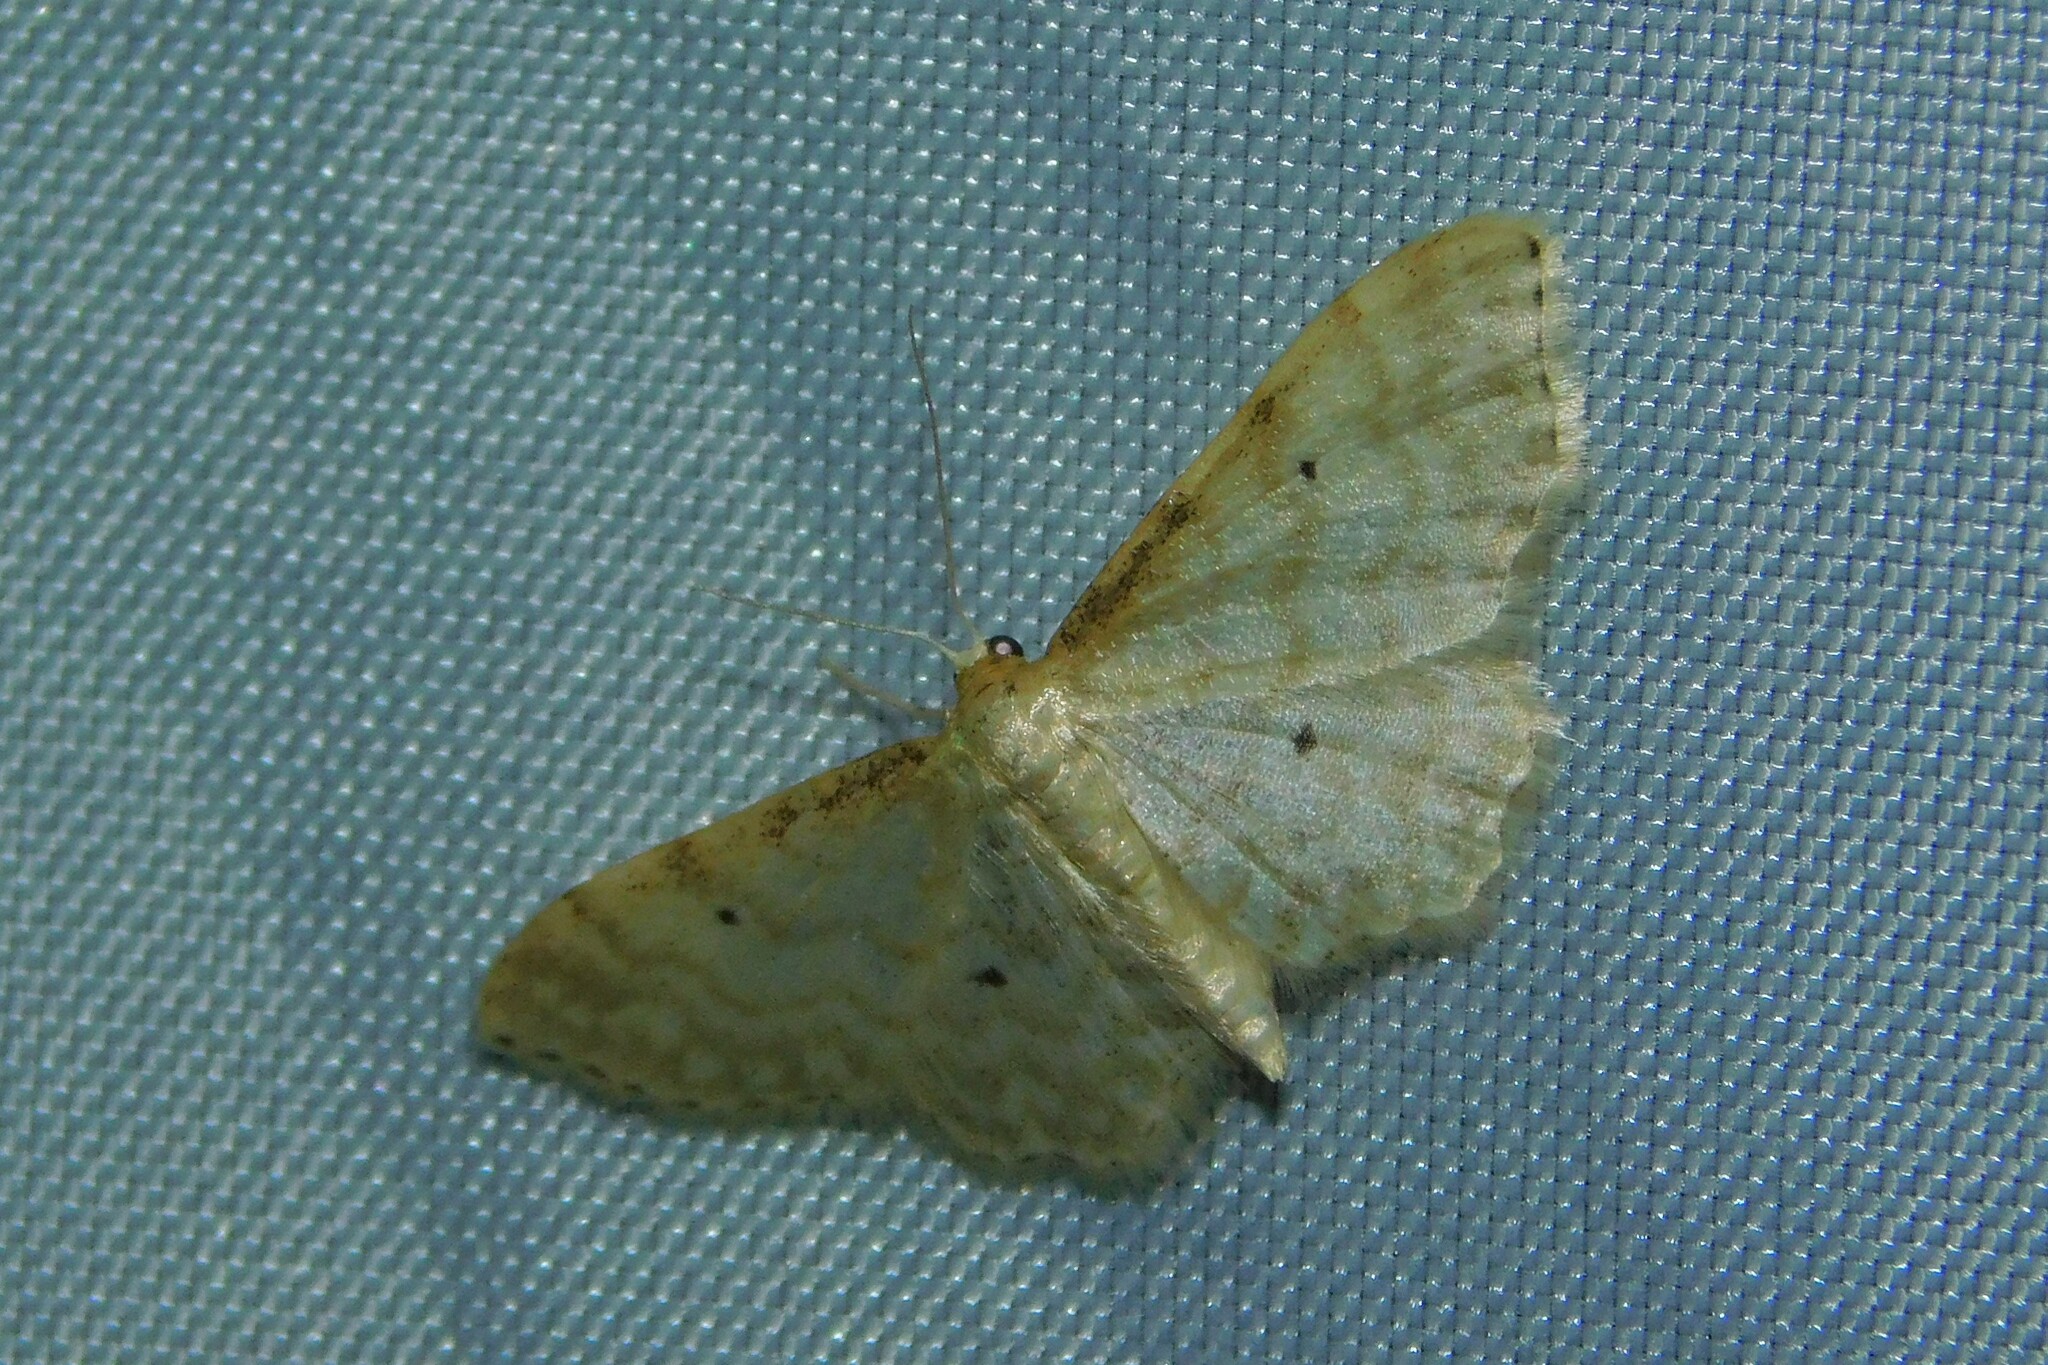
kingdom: Animalia
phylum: Arthropoda
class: Insecta
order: Lepidoptera
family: Geometridae
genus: Idaea
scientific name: Idaea fuscovenosa
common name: Dwarf cream wave
